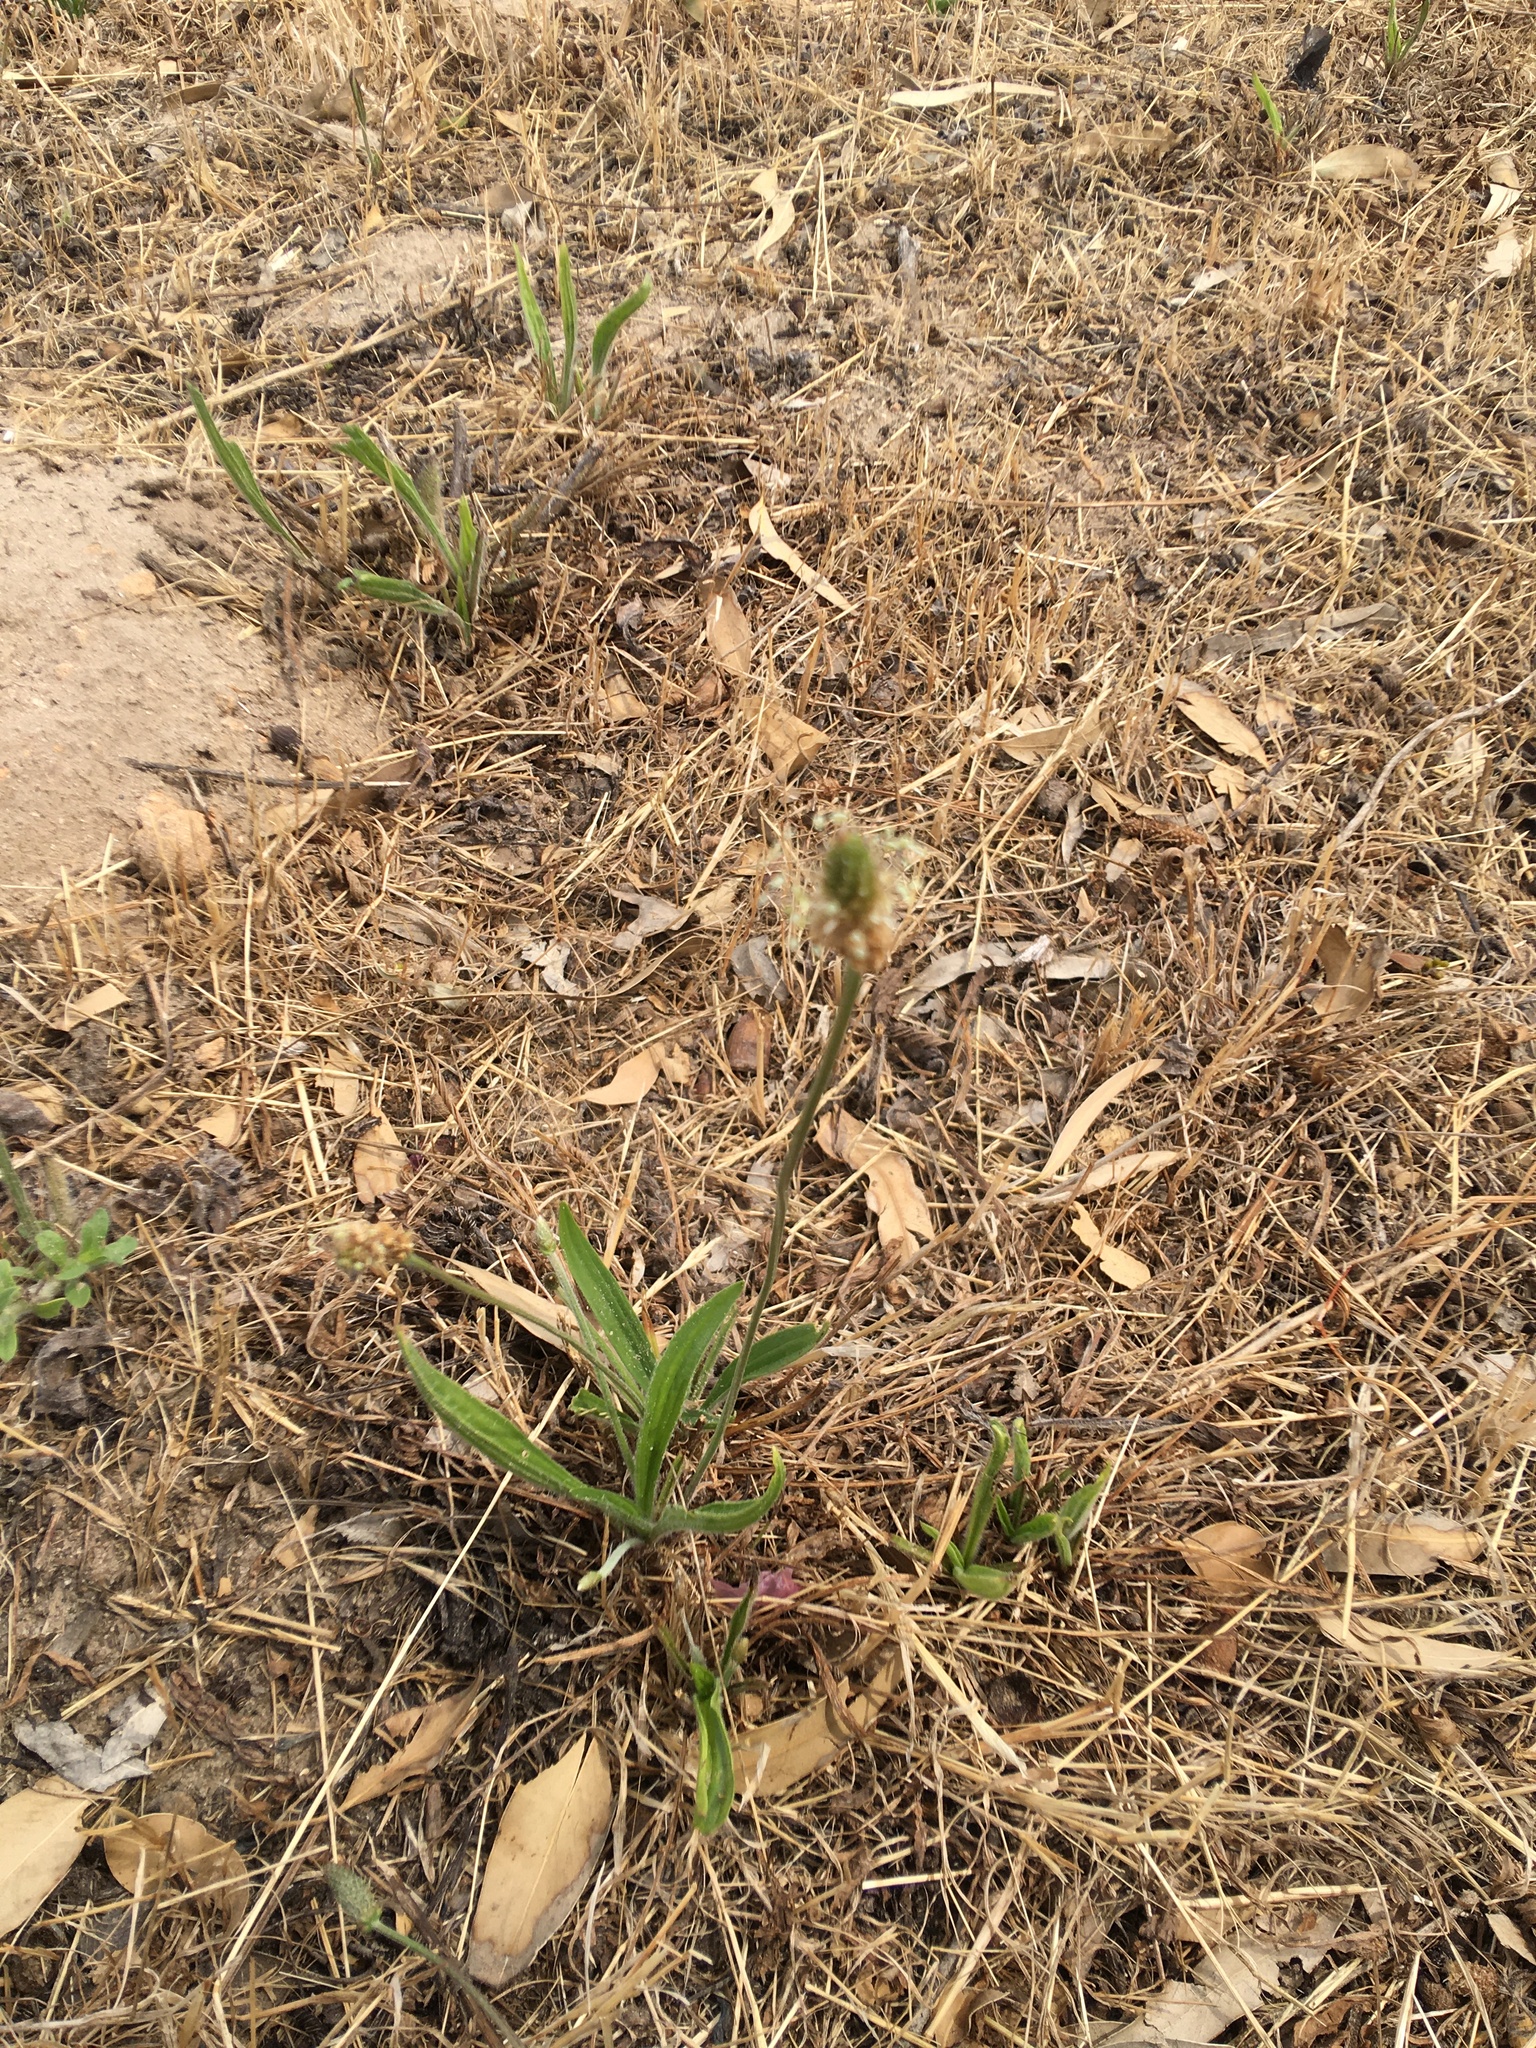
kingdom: Plantae
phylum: Tracheophyta
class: Magnoliopsida
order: Lamiales
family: Plantaginaceae
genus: Plantago
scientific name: Plantago lanceolata
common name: Ribwort plantain
